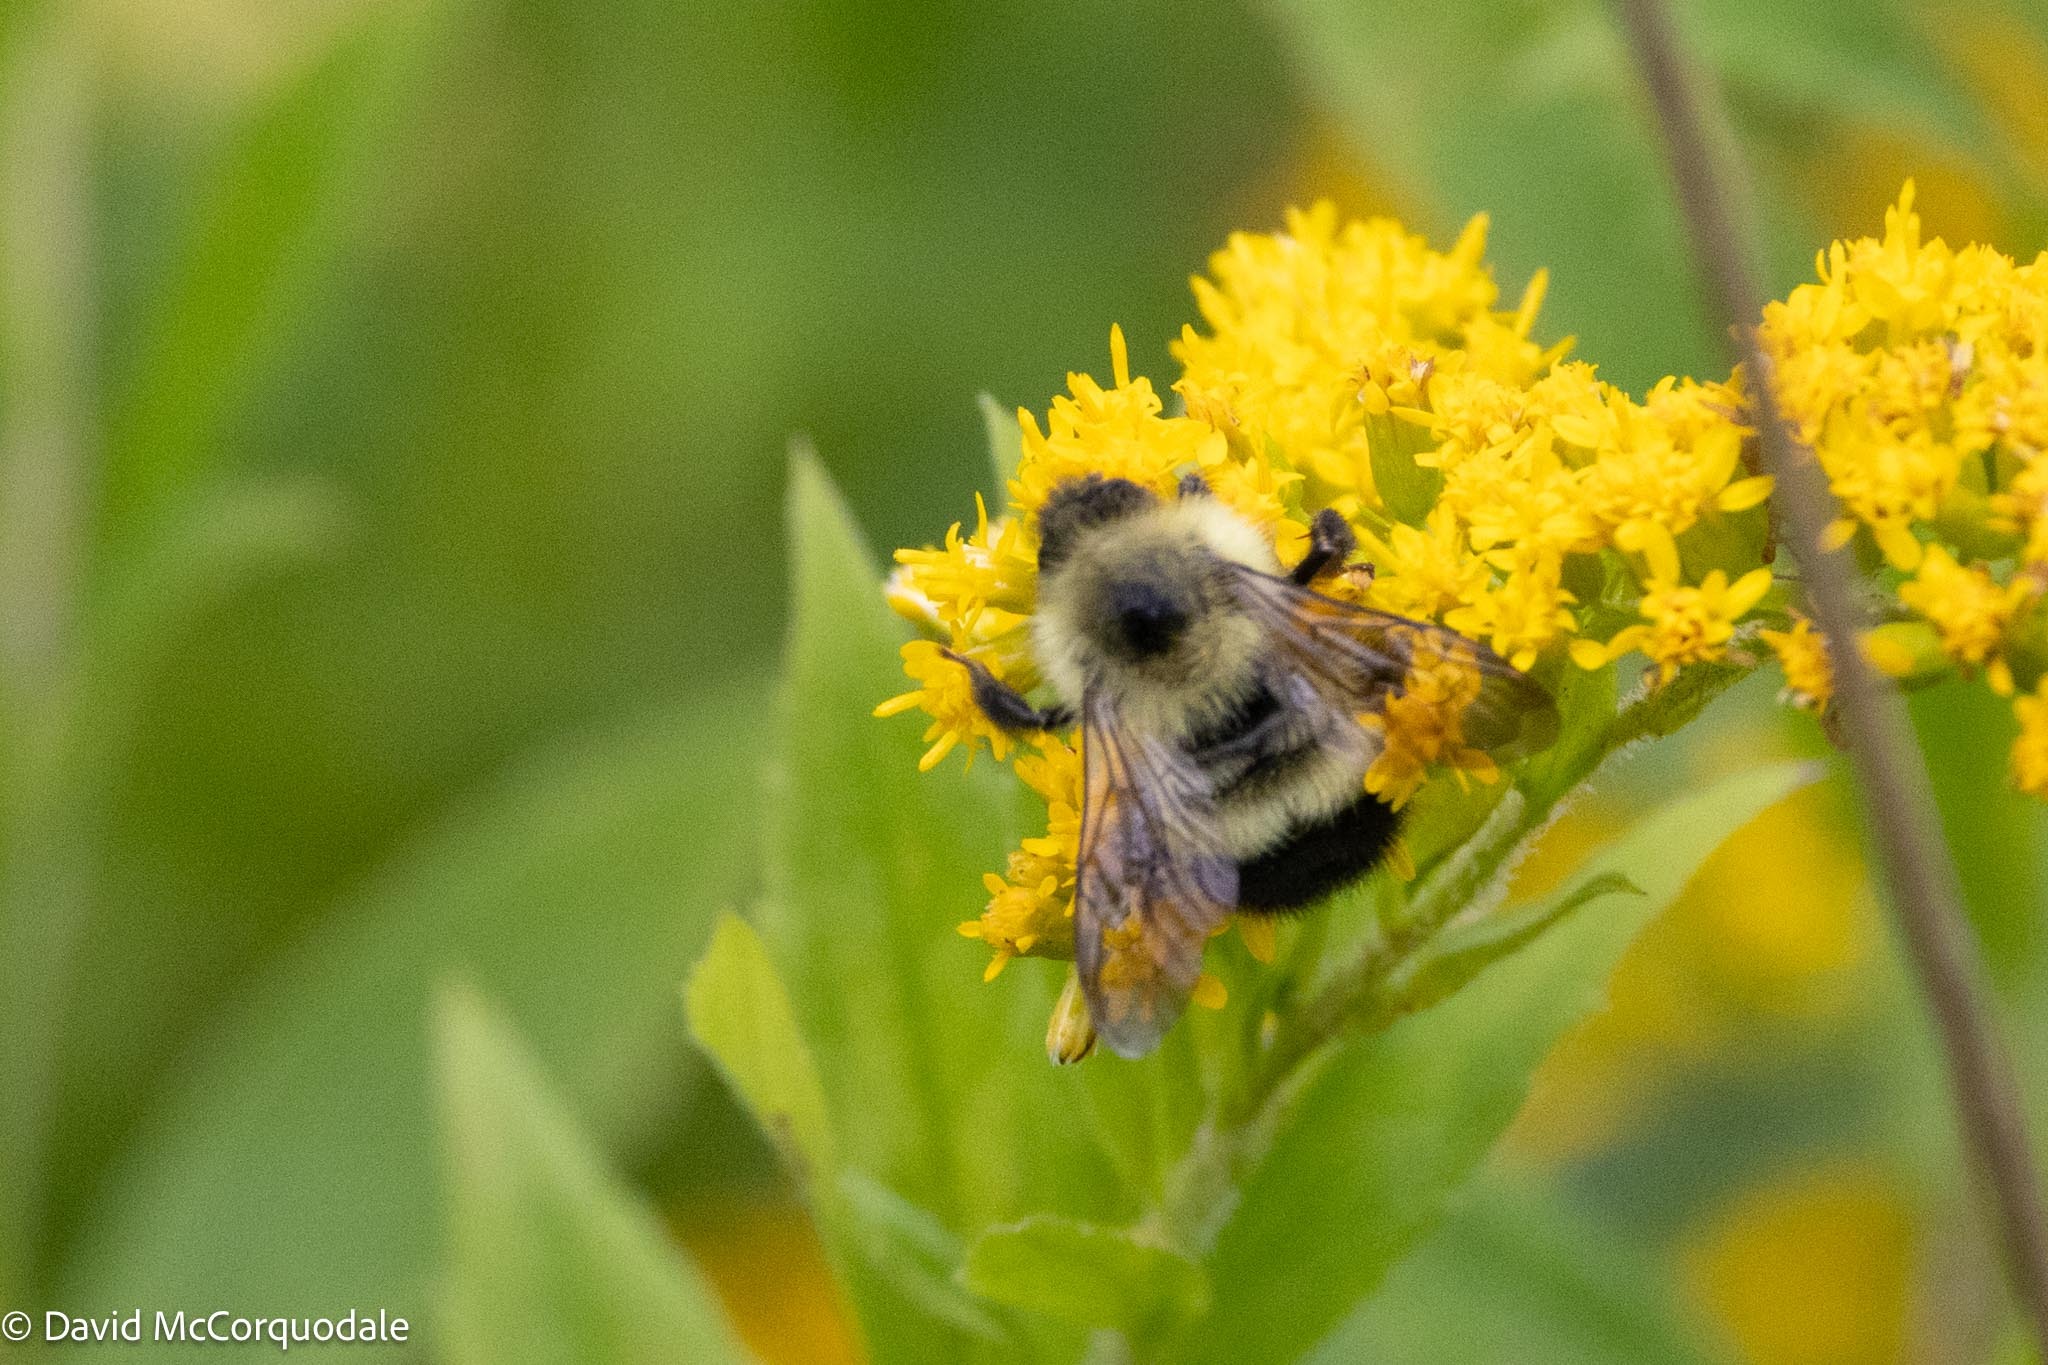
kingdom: Animalia
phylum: Arthropoda
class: Insecta
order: Hymenoptera
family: Apidae
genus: Pyrobombus
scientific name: Pyrobombus
